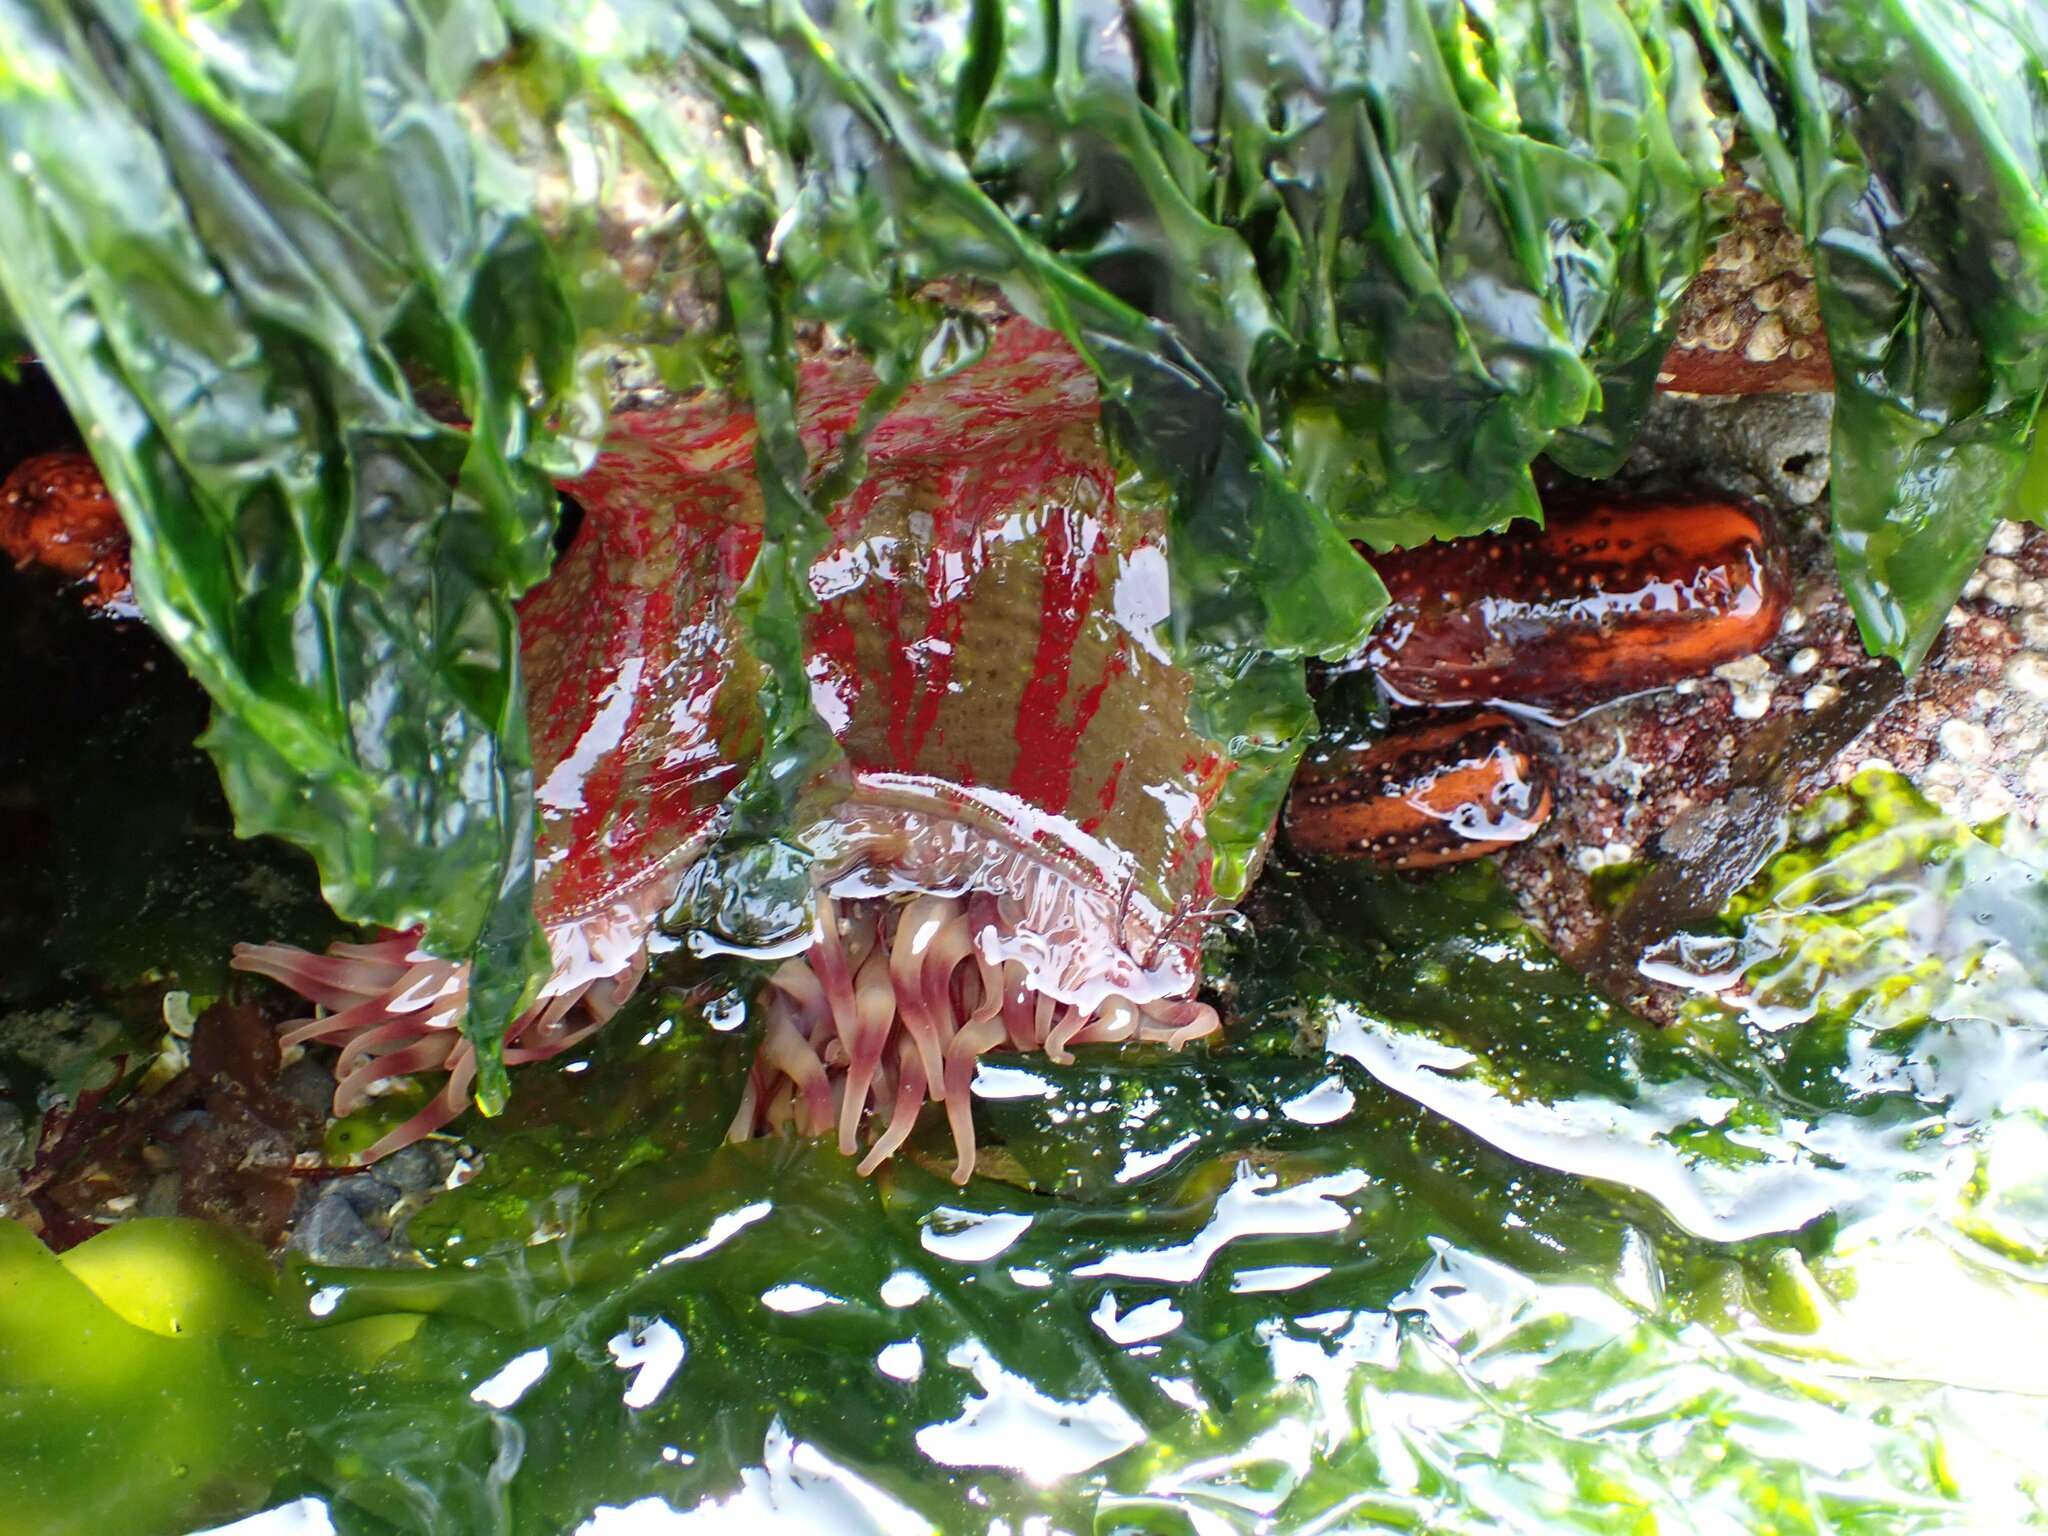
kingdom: Animalia
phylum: Cnidaria
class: Anthozoa
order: Actiniaria
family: Actiniidae
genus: Urticina
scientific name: Urticina grebelnyi
